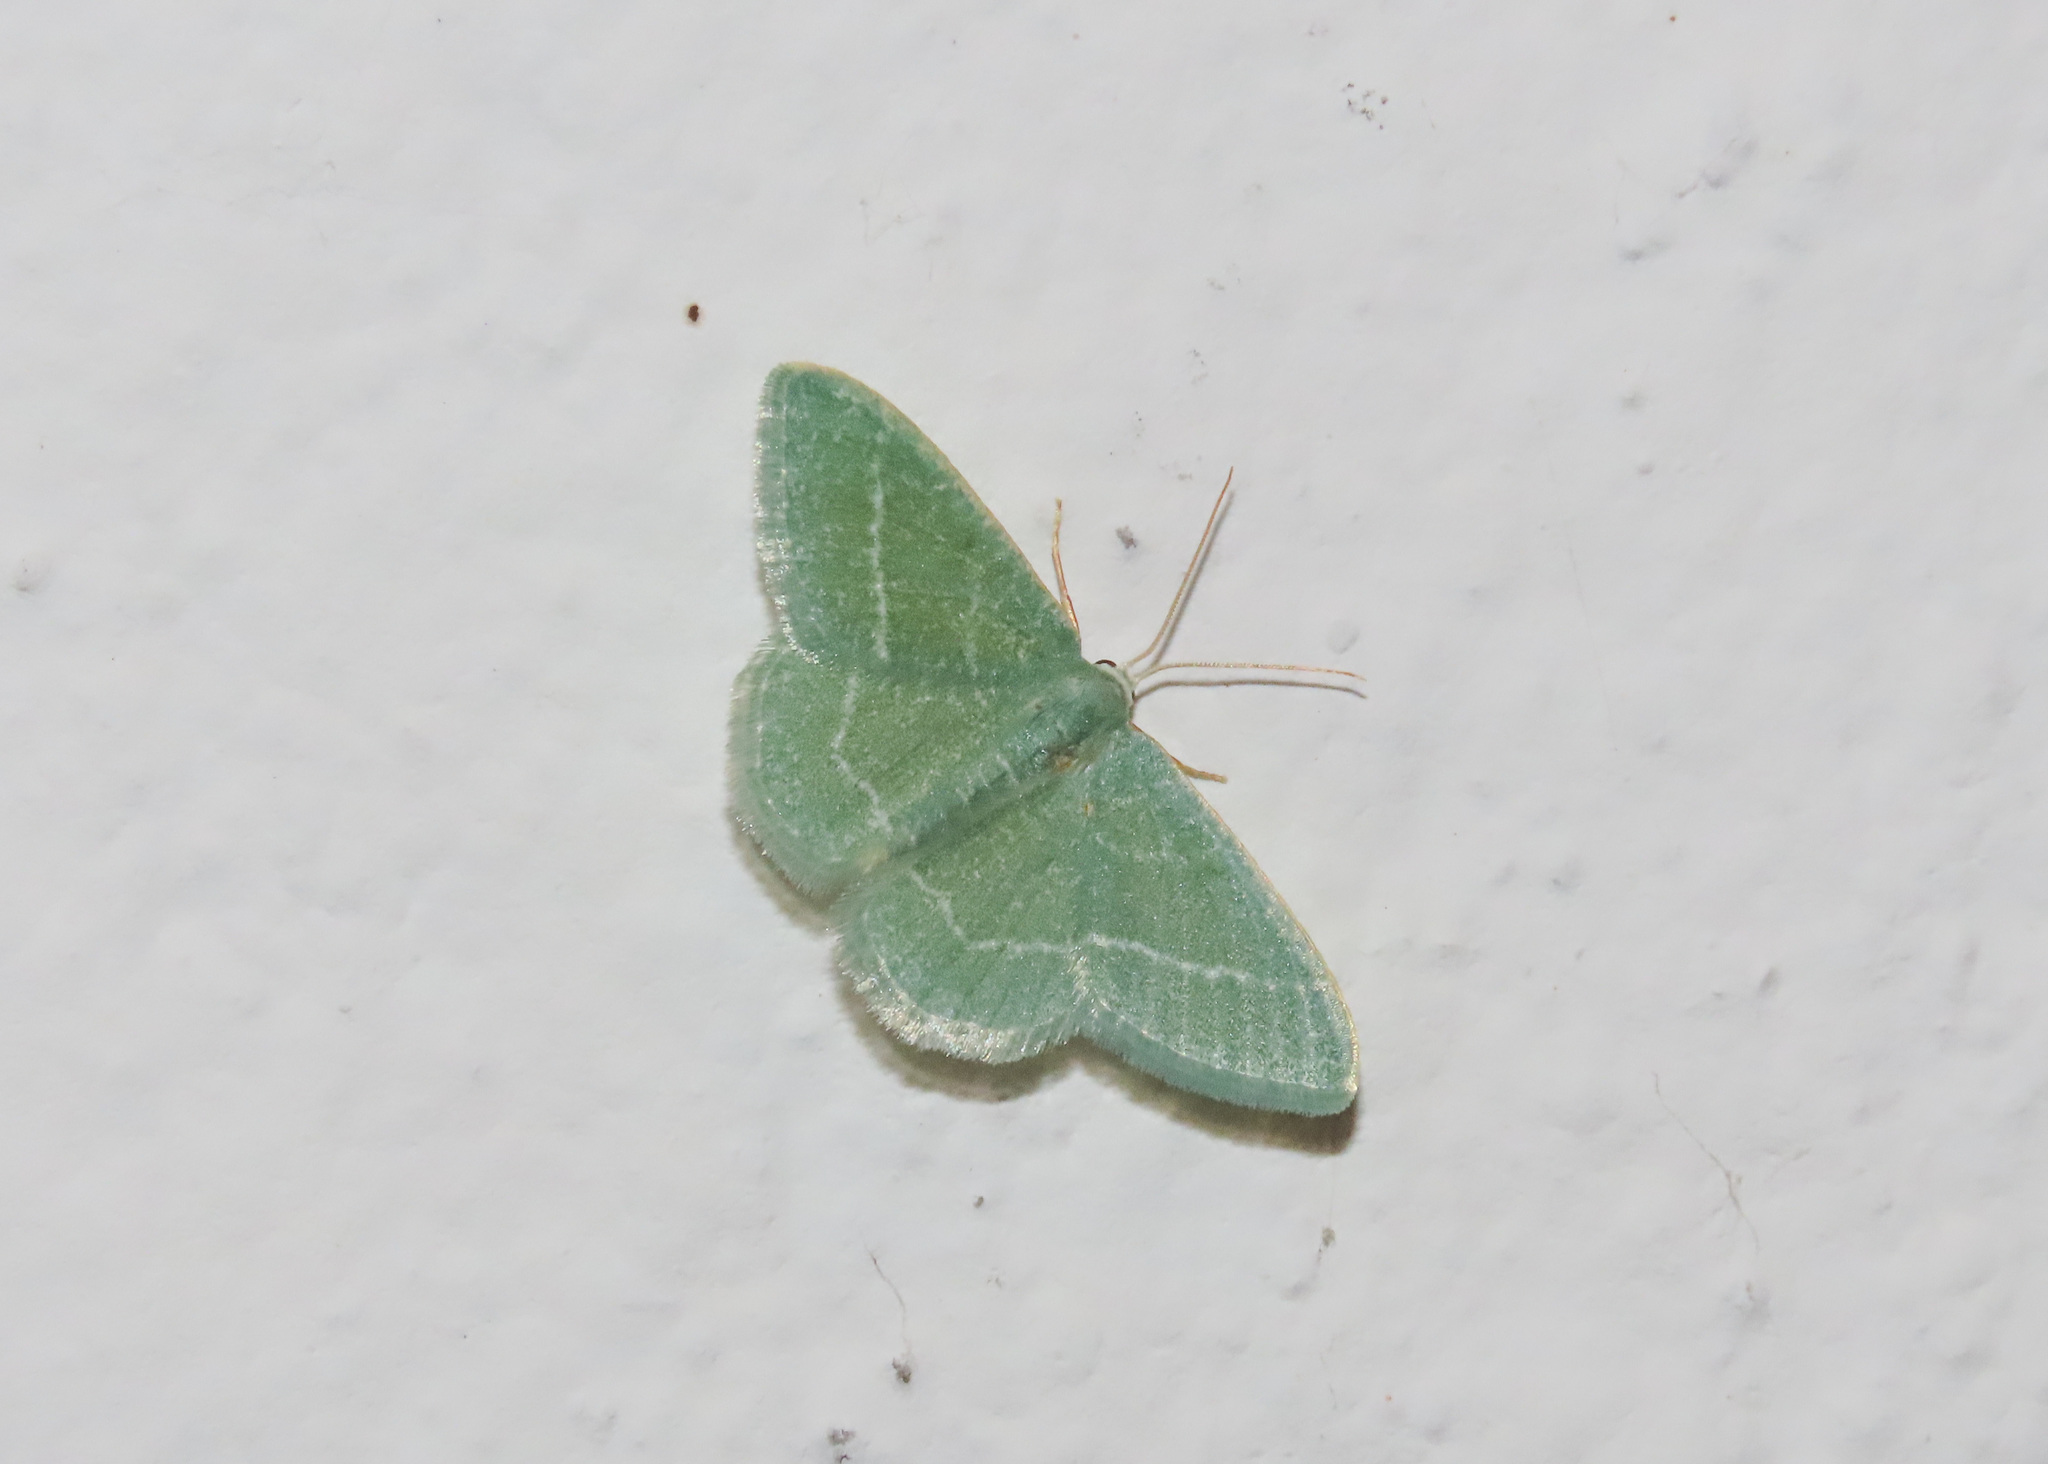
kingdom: Animalia
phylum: Arthropoda
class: Insecta
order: Lepidoptera
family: Geometridae
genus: Chlorissa
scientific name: Chlorissa etruscaria
